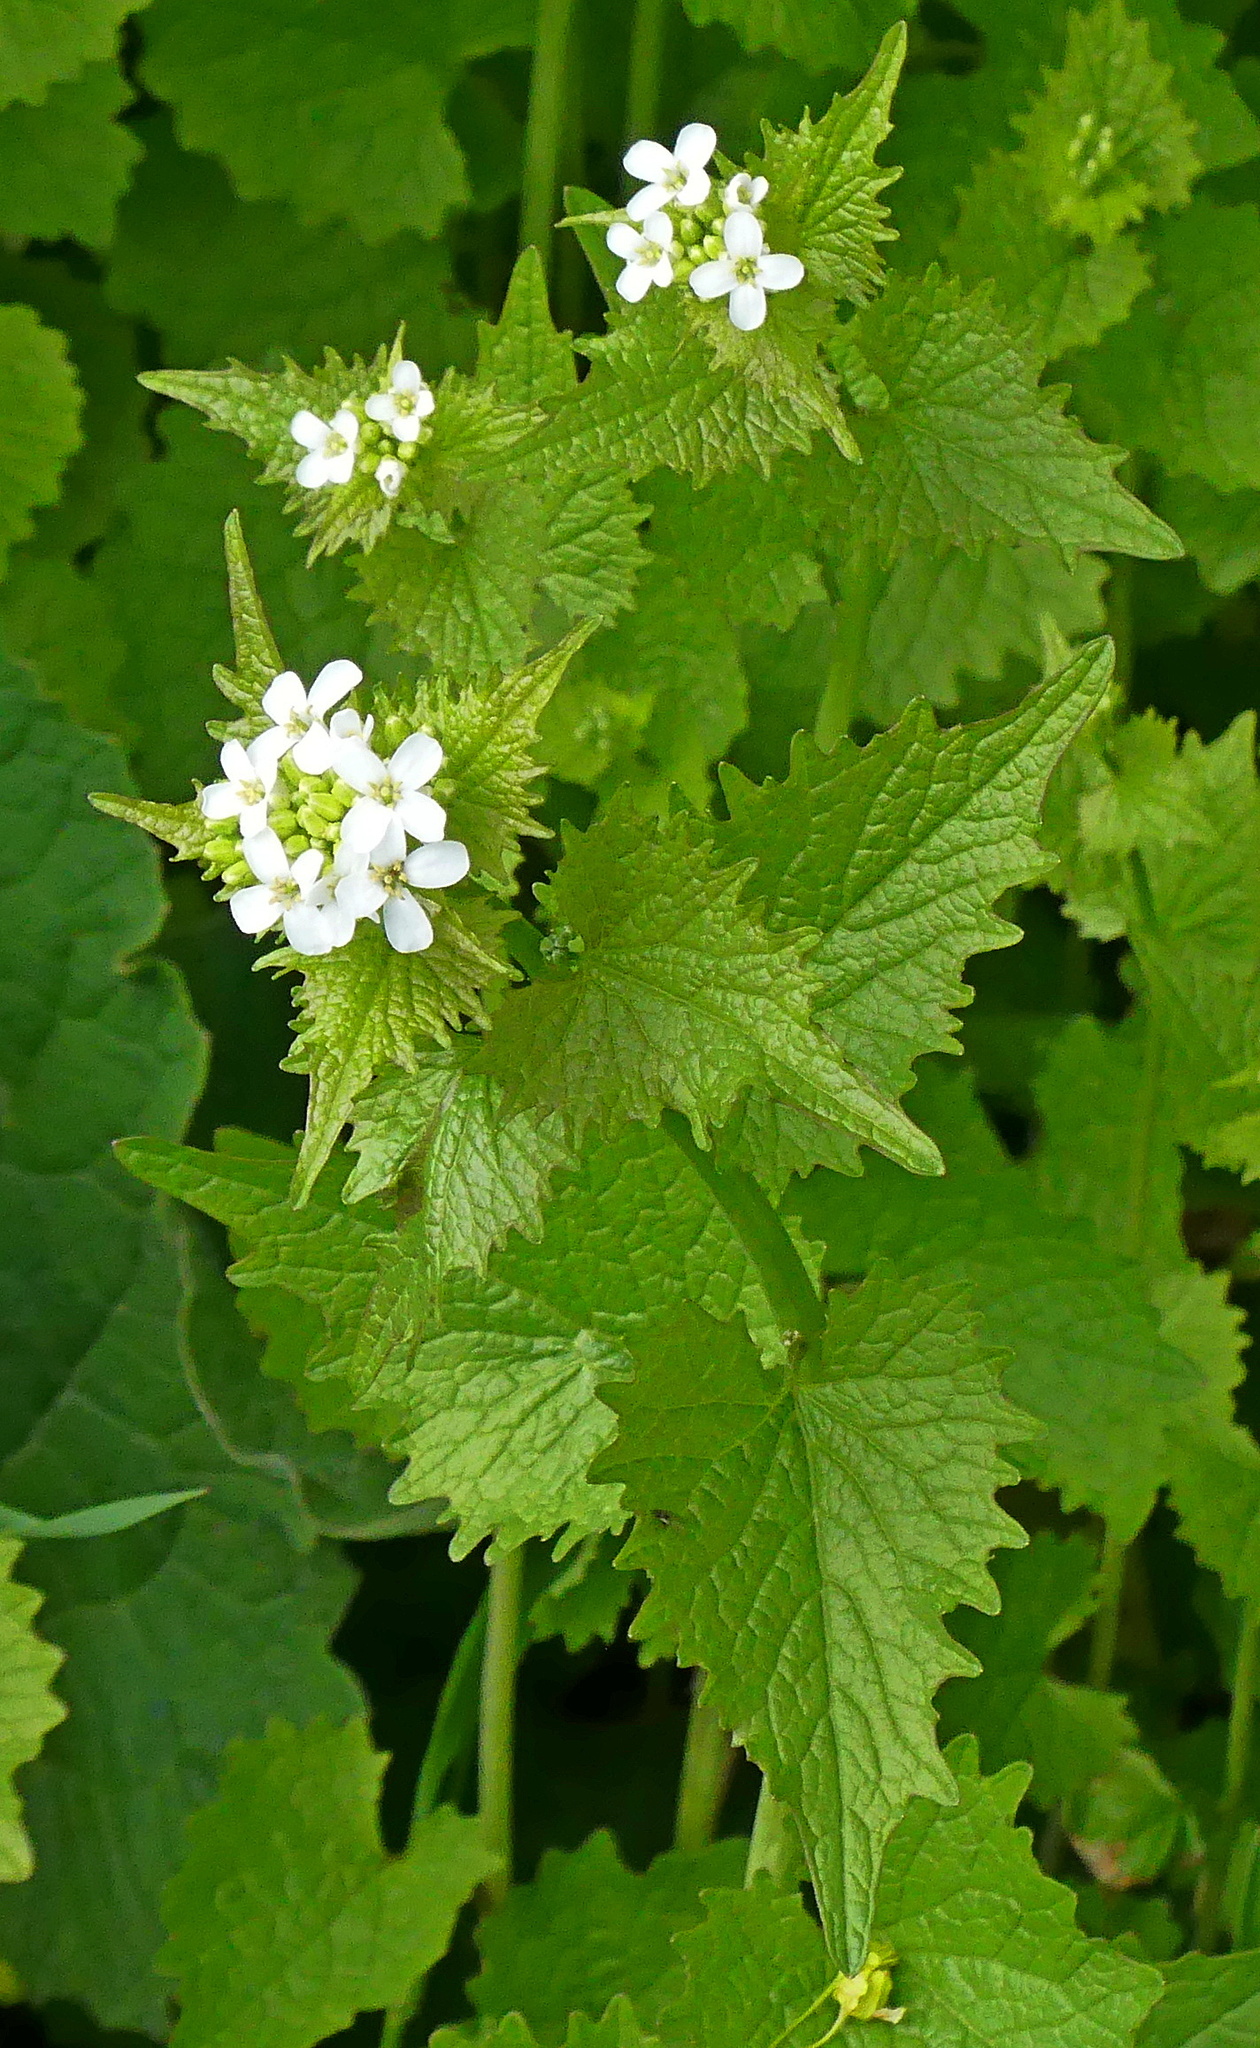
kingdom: Plantae
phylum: Tracheophyta
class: Magnoliopsida
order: Brassicales
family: Brassicaceae
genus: Alliaria
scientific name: Alliaria petiolata
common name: Garlic mustard
